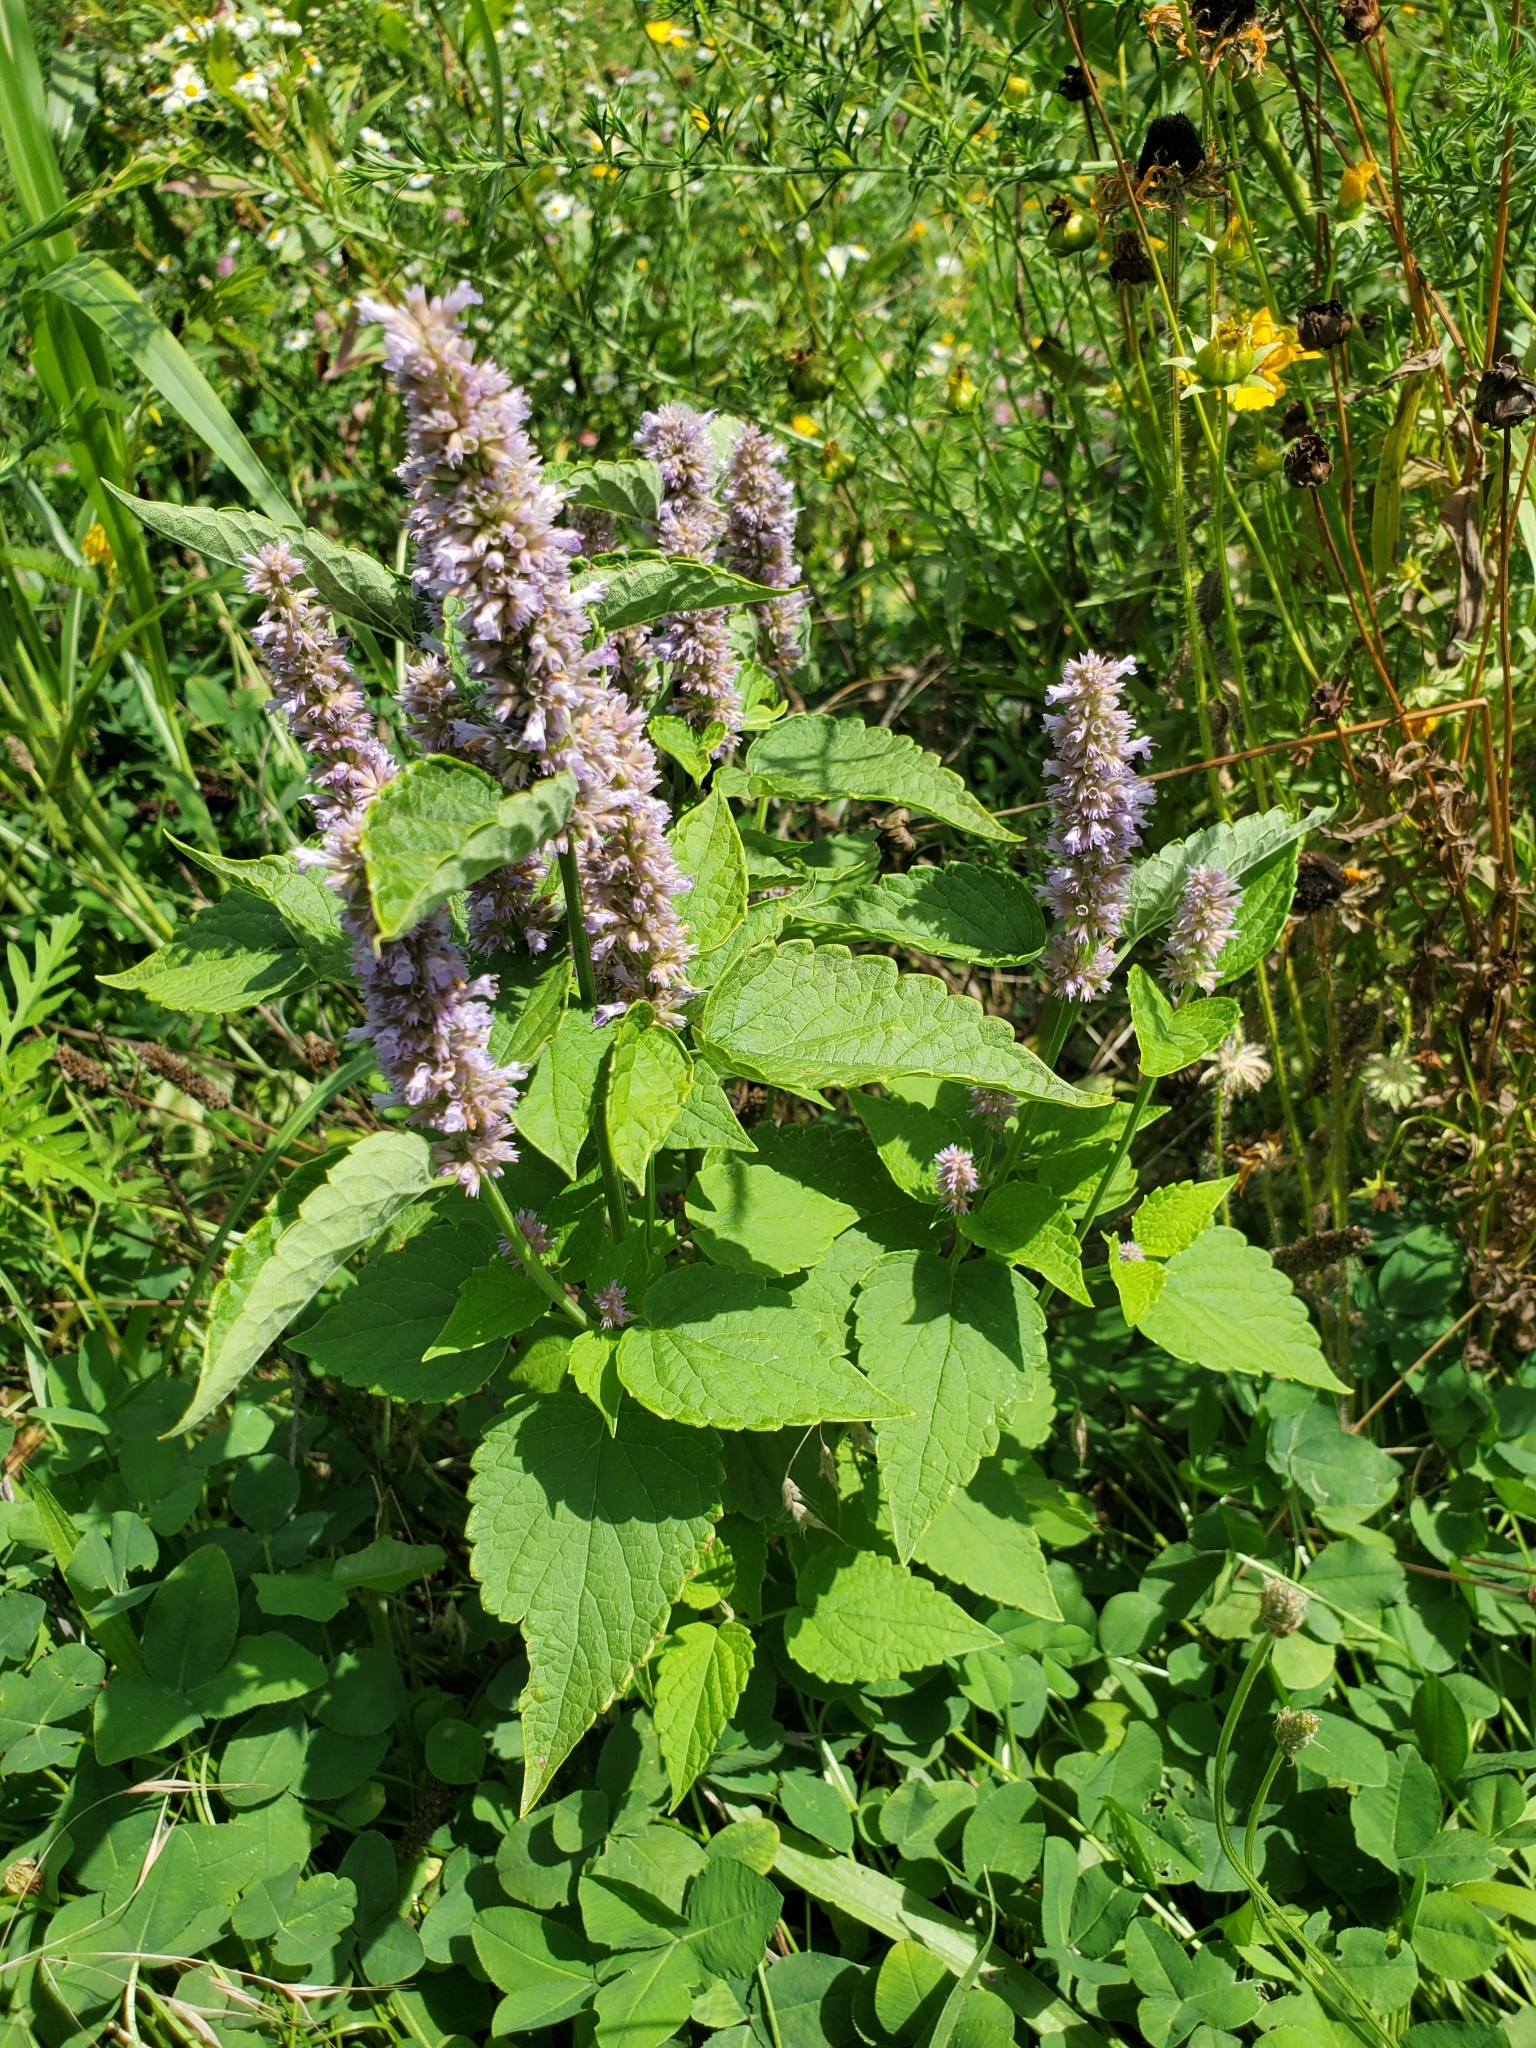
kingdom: Plantae
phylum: Tracheophyta
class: Magnoliopsida
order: Lamiales
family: Lamiaceae
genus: Agastache
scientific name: Agastache foeniculum
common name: Anise hyssop
